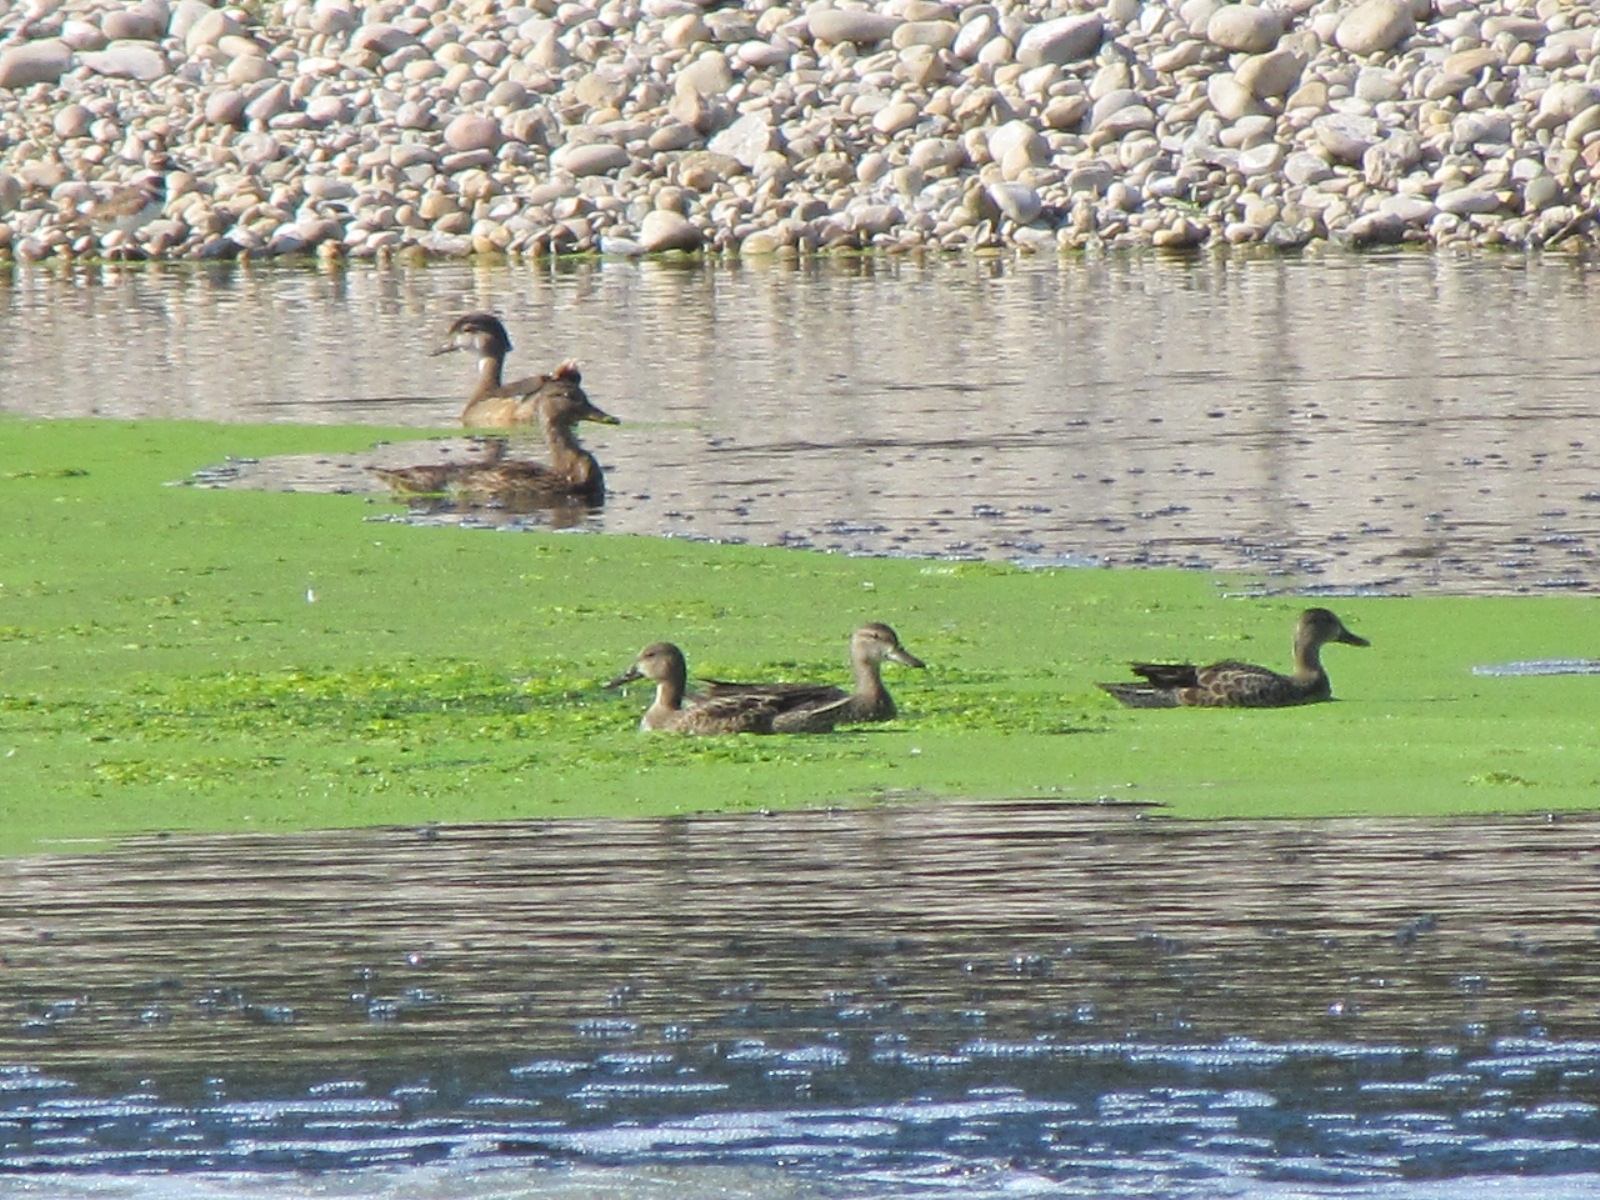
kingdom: Animalia
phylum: Chordata
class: Aves
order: Anseriformes
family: Anatidae
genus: Spatula
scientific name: Spatula discors
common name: Blue-winged teal
